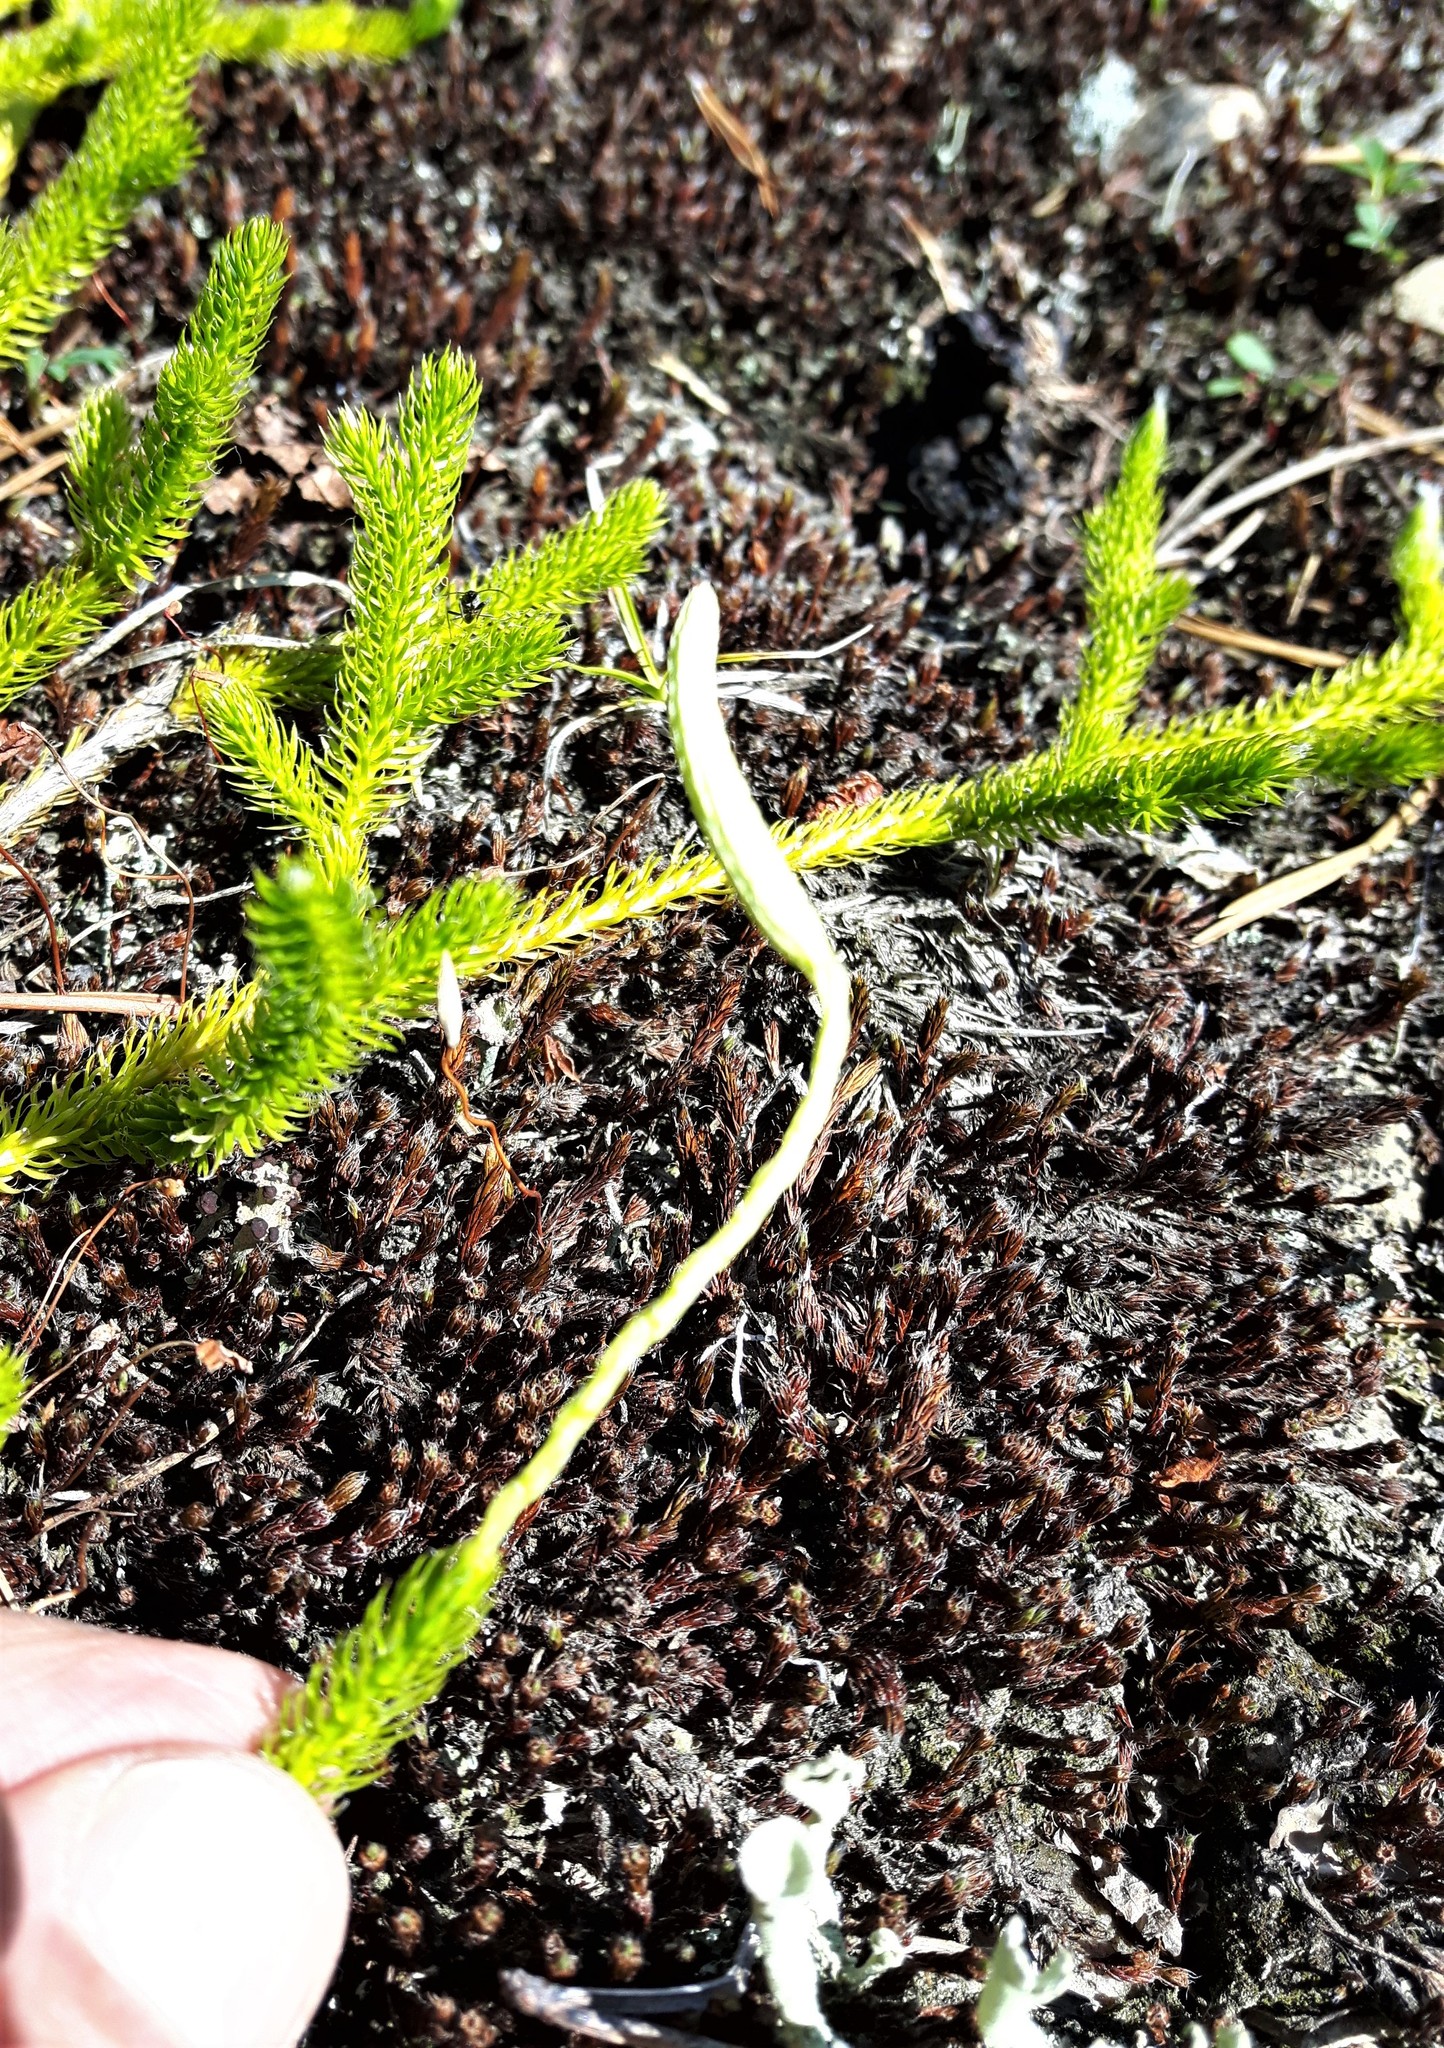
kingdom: Plantae
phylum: Tracheophyta
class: Lycopodiopsida
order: Lycopodiales
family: Lycopodiaceae
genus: Lycopodium
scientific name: Lycopodium lagopus
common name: One-cone clubmoss
